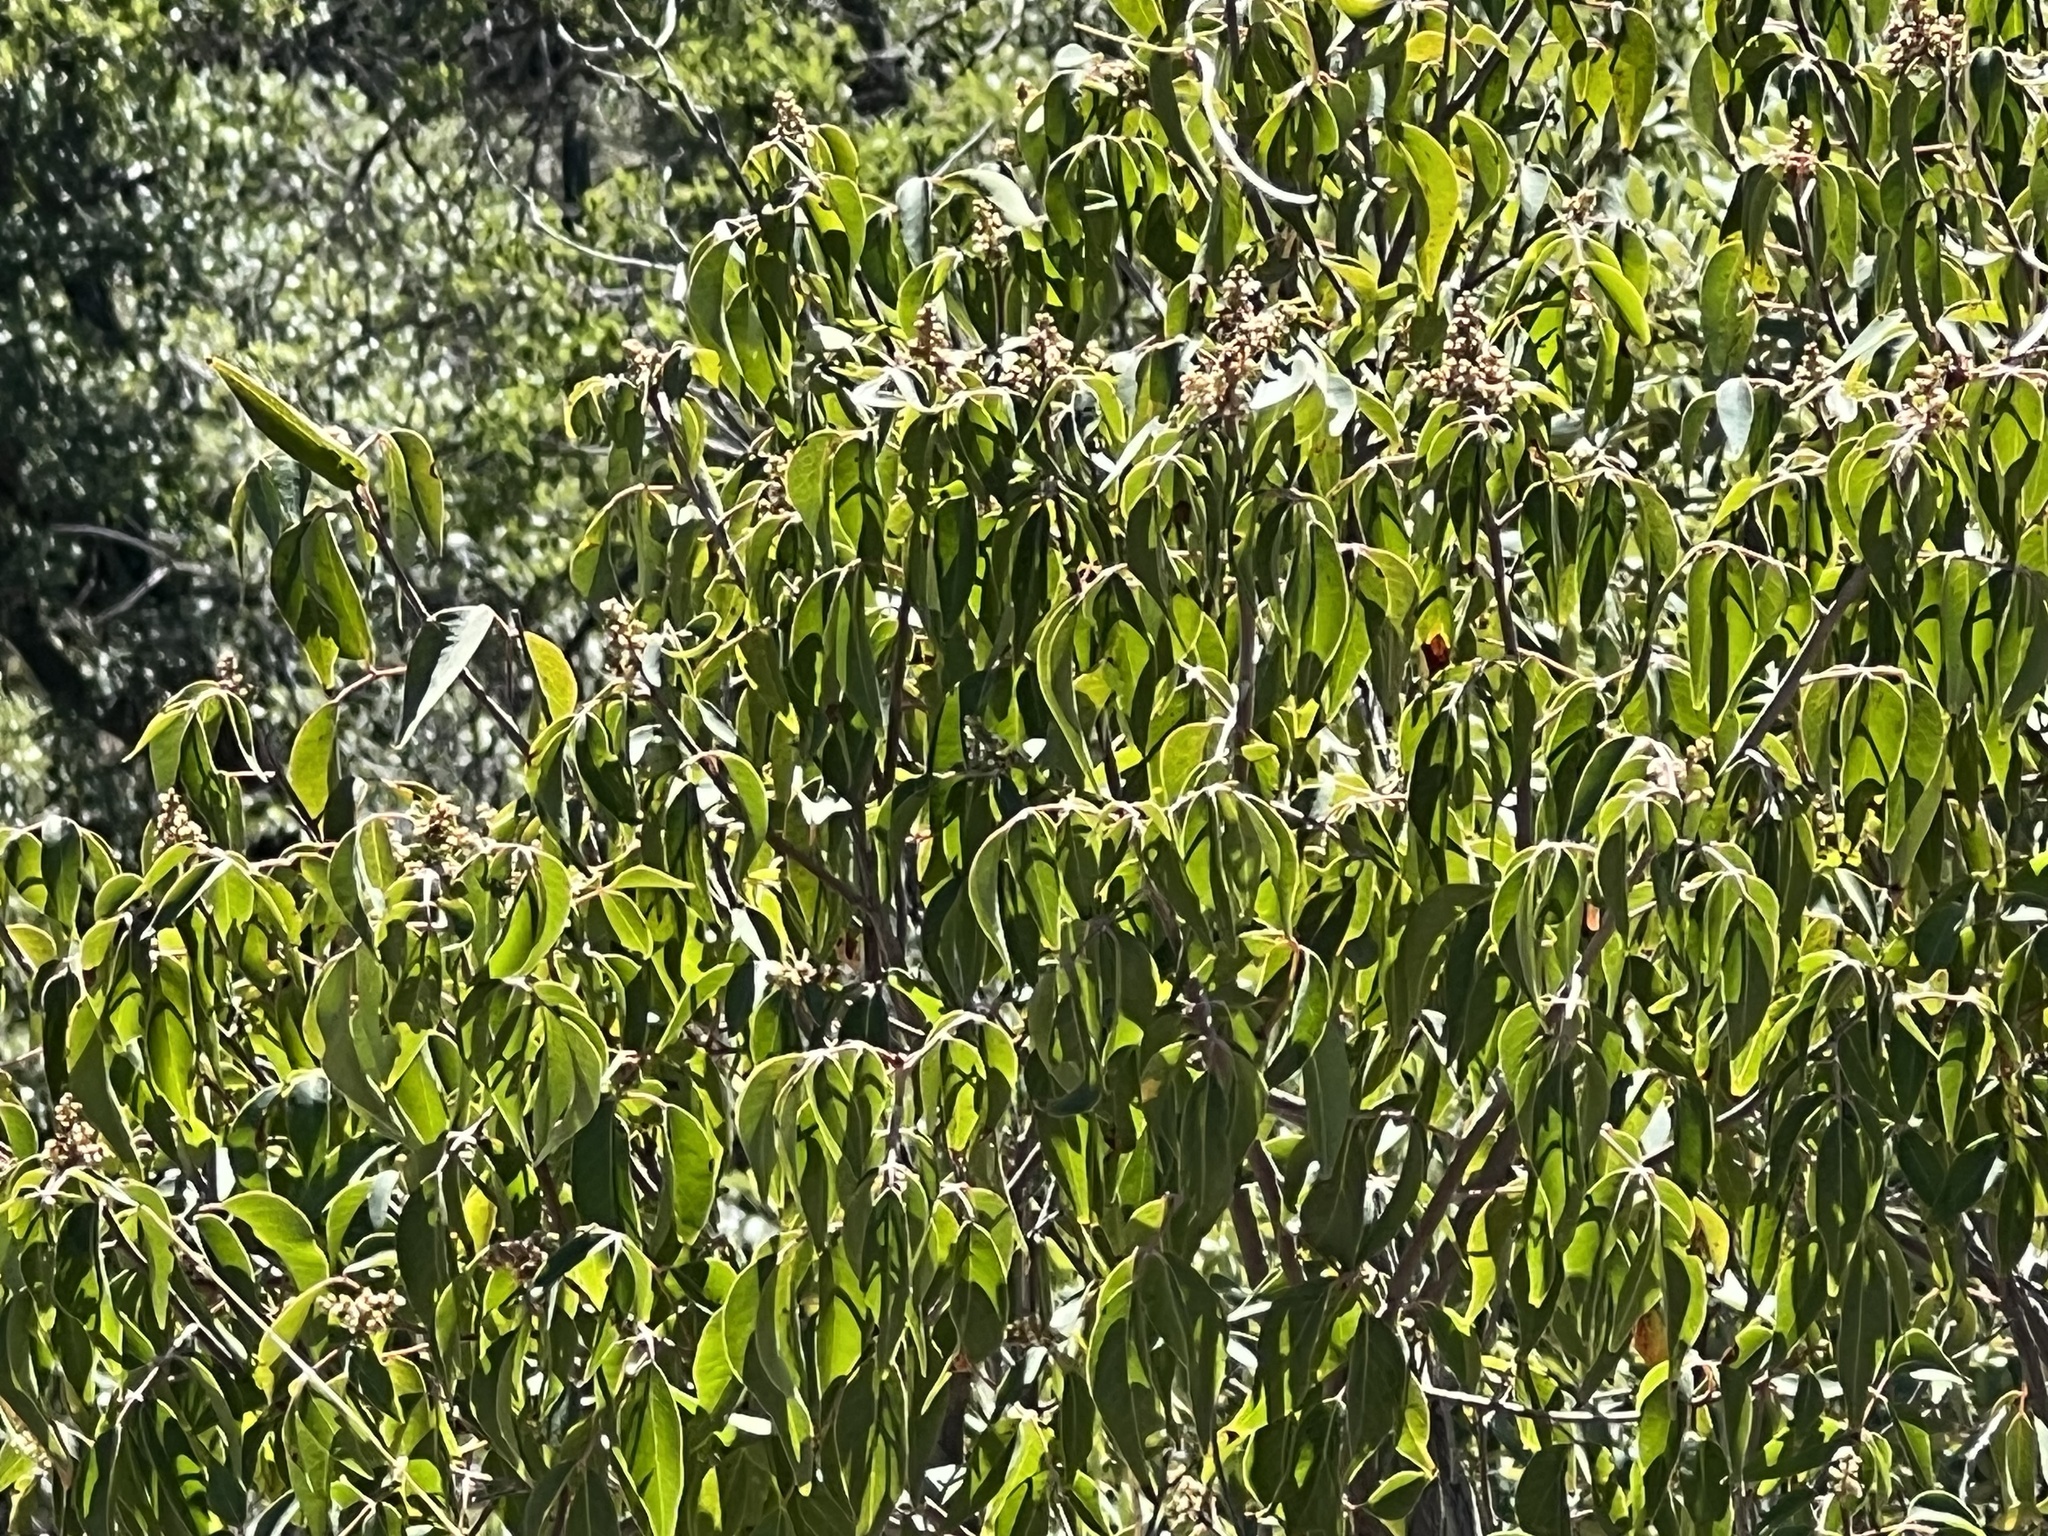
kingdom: Plantae
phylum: Tracheophyta
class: Magnoliopsida
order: Sapindales
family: Anacardiaceae
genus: Rhus
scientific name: Rhus virens
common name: Evergreen sumac
